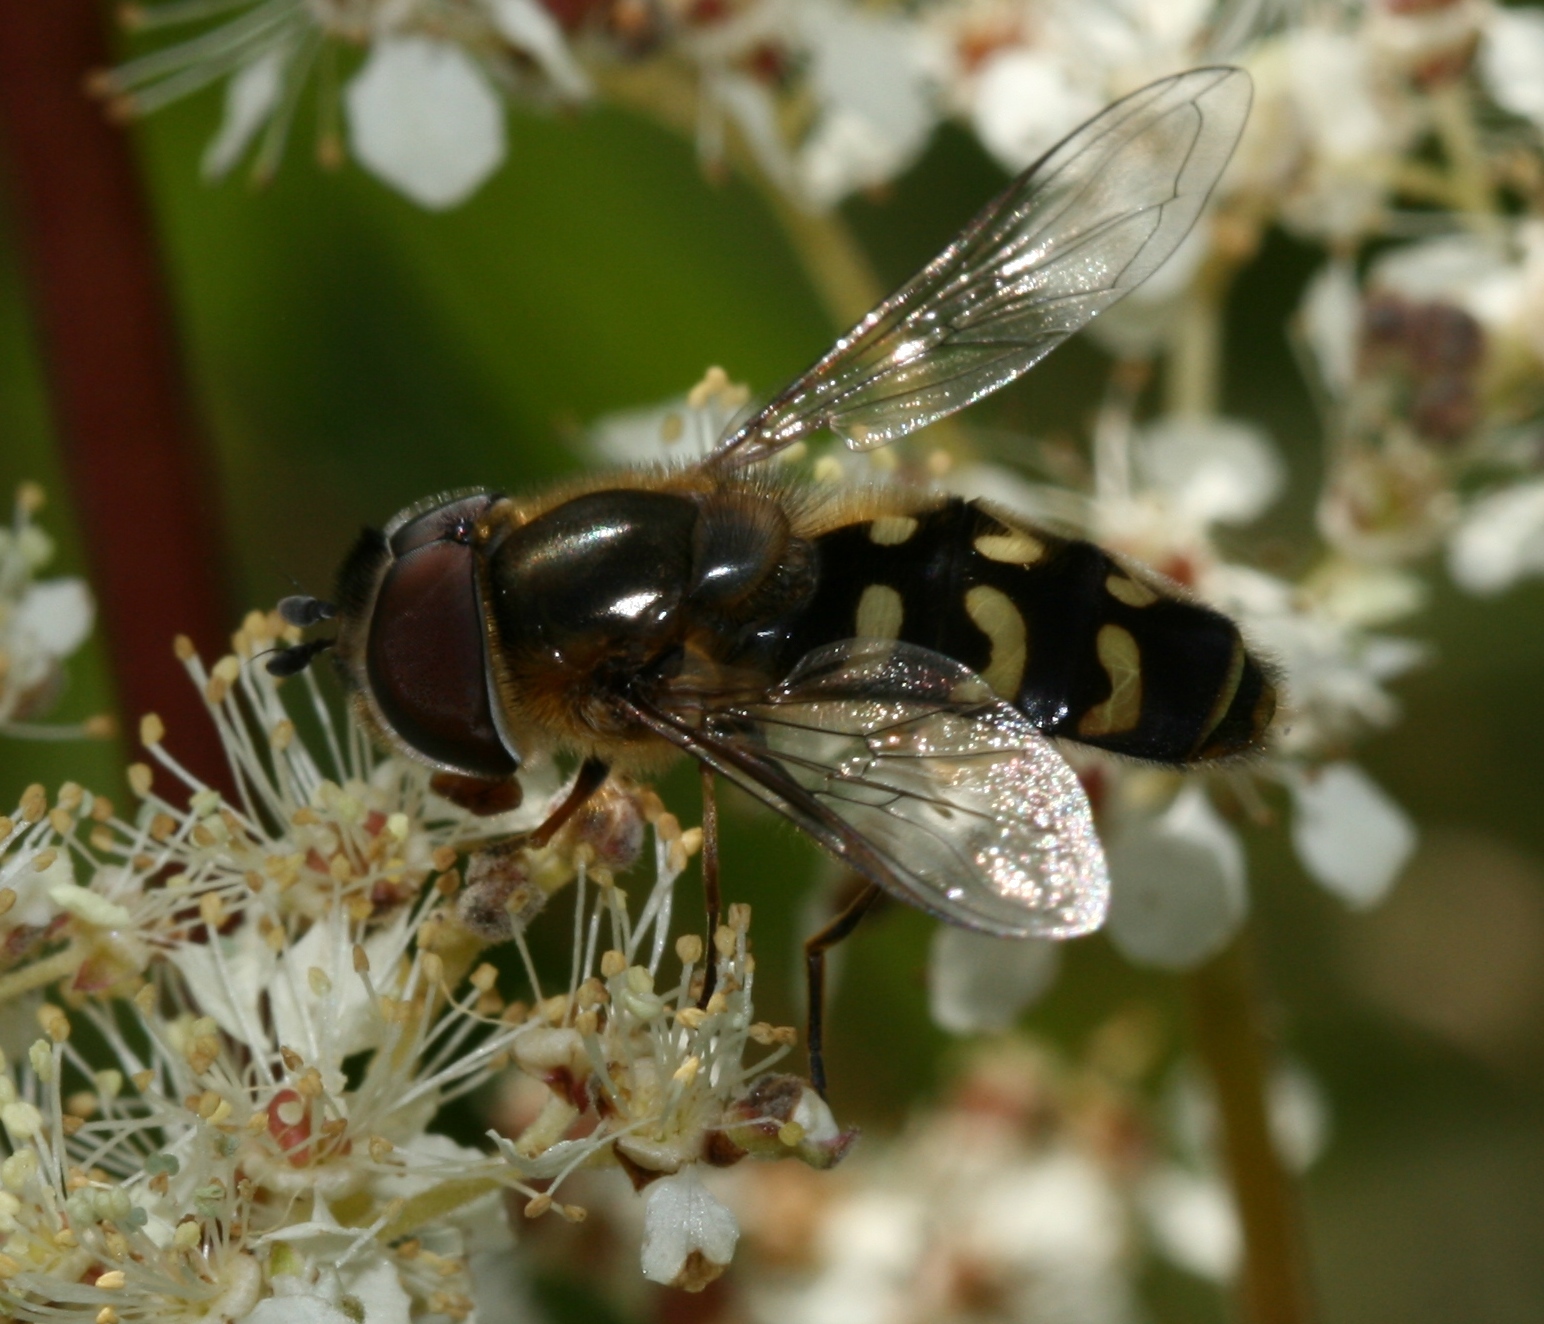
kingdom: Animalia
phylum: Arthropoda
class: Insecta
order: Diptera
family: Syrphidae
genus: Scaeva
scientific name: Scaeva selenitica
